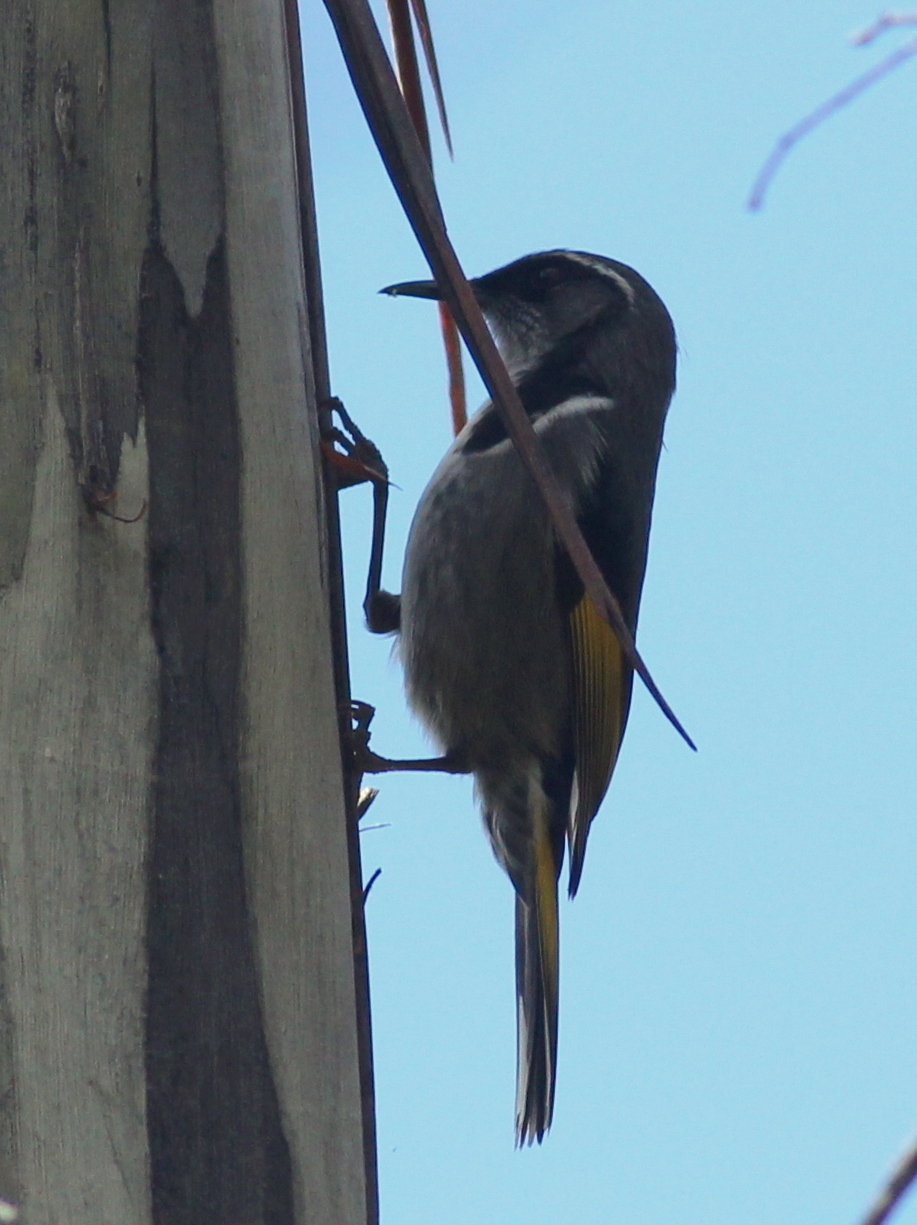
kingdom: Animalia
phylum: Chordata
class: Aves
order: Passeriformes
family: Meliphagidae
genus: Phylidonyris
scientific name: Phylidonyris pyrrhopterus
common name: Crescent honeyeater
